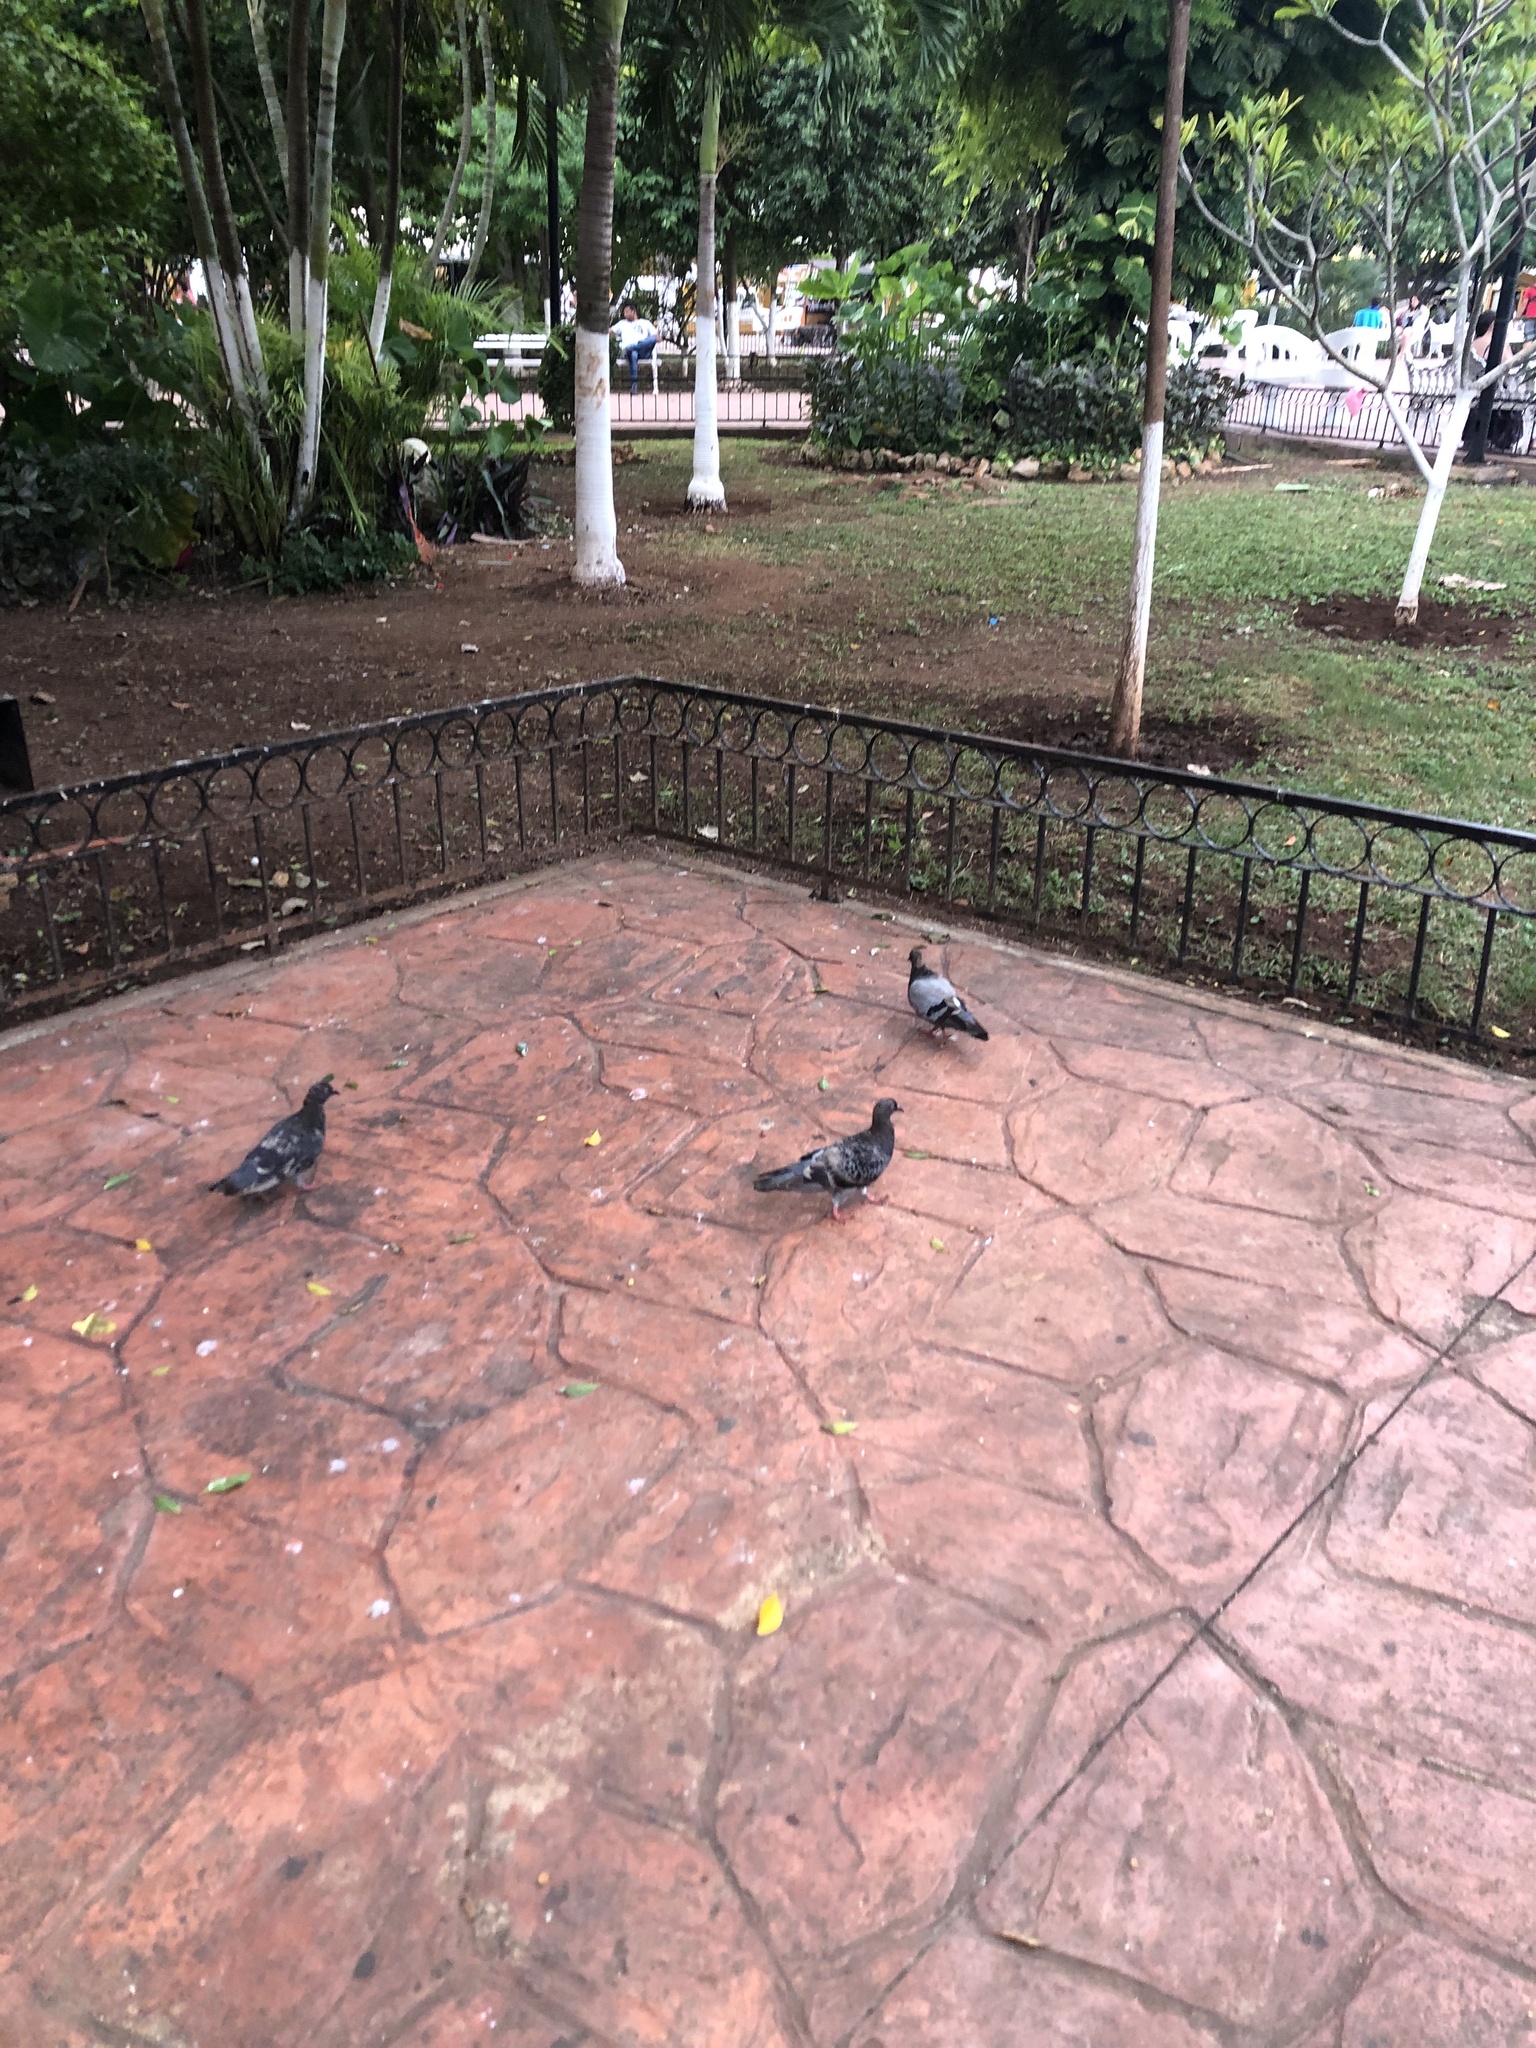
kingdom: Animalia
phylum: Chordata
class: Aves
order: Columbiformes
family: Columbidae
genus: Columba
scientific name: Columba livia
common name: Rock pigeon
